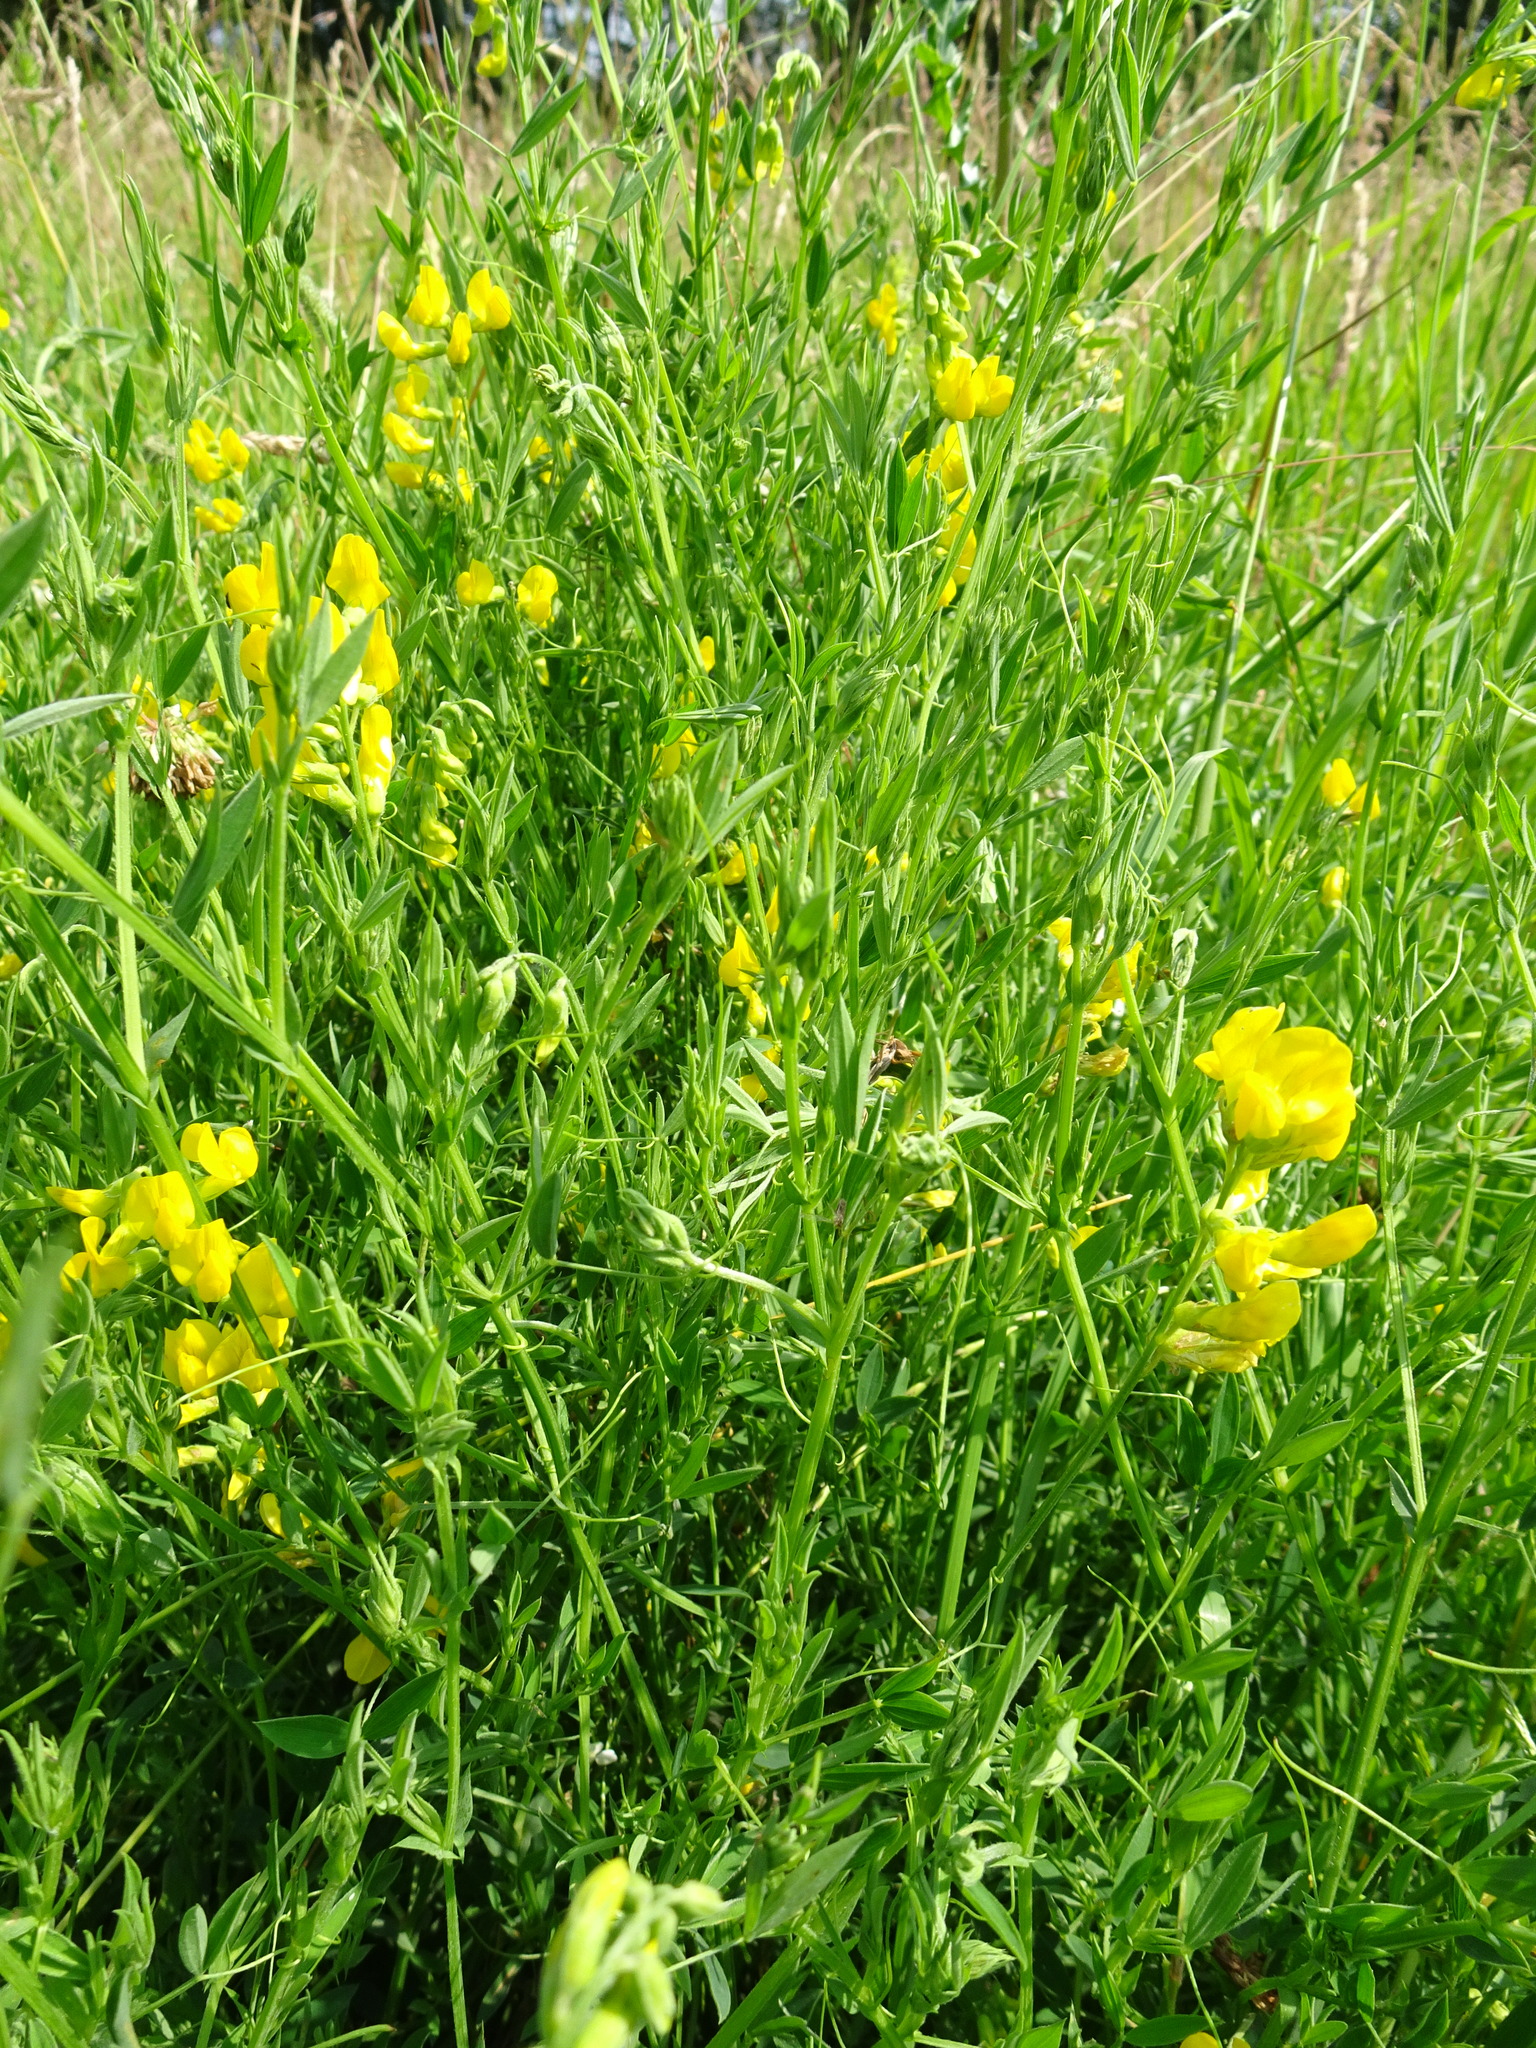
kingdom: Plantae
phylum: Tracheophyta
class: Magnoliopsida
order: Fabales
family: Fabaceae
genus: Lathyrus
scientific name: Lathyrus pratensis
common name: Meadow vetchling
